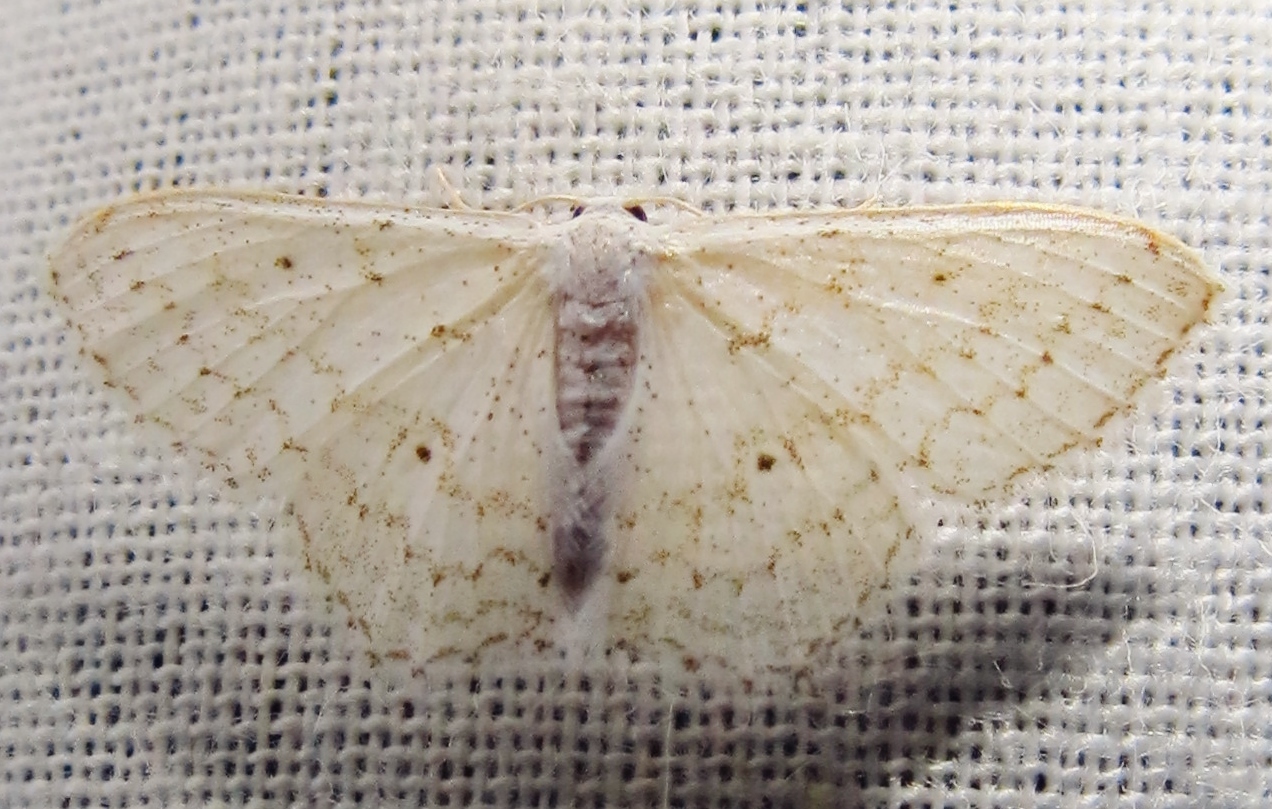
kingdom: Animalia
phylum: Arthropoda
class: Insecta
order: Lepidoptera
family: Geometridae
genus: Idaea
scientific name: Idaea tacturata
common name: Dot-lined wave
